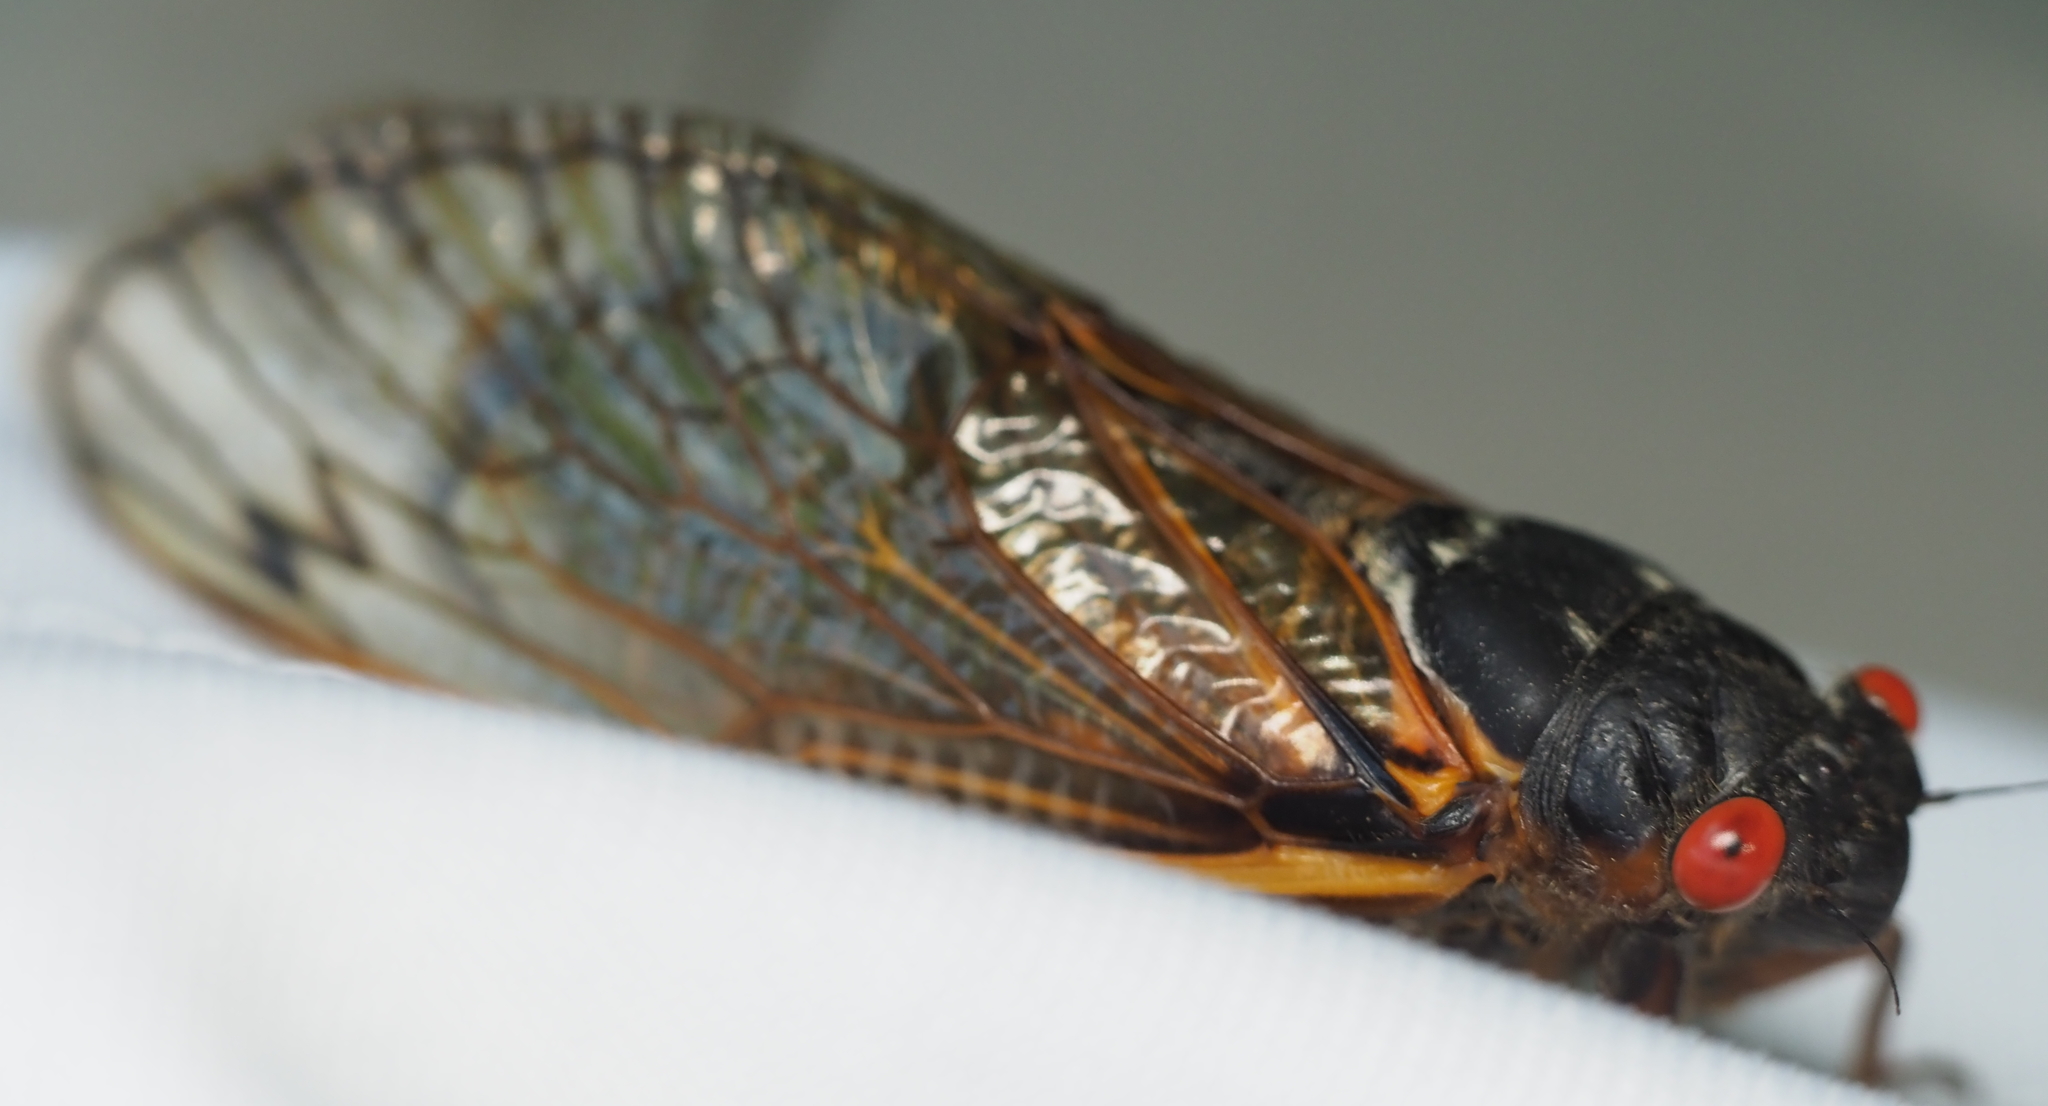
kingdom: Animalia
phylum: Arthropoda
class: Insecta
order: Hemiptera
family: Cicadidae
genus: Magicicada
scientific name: Magicicada septendecim
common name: Periodical cicada
